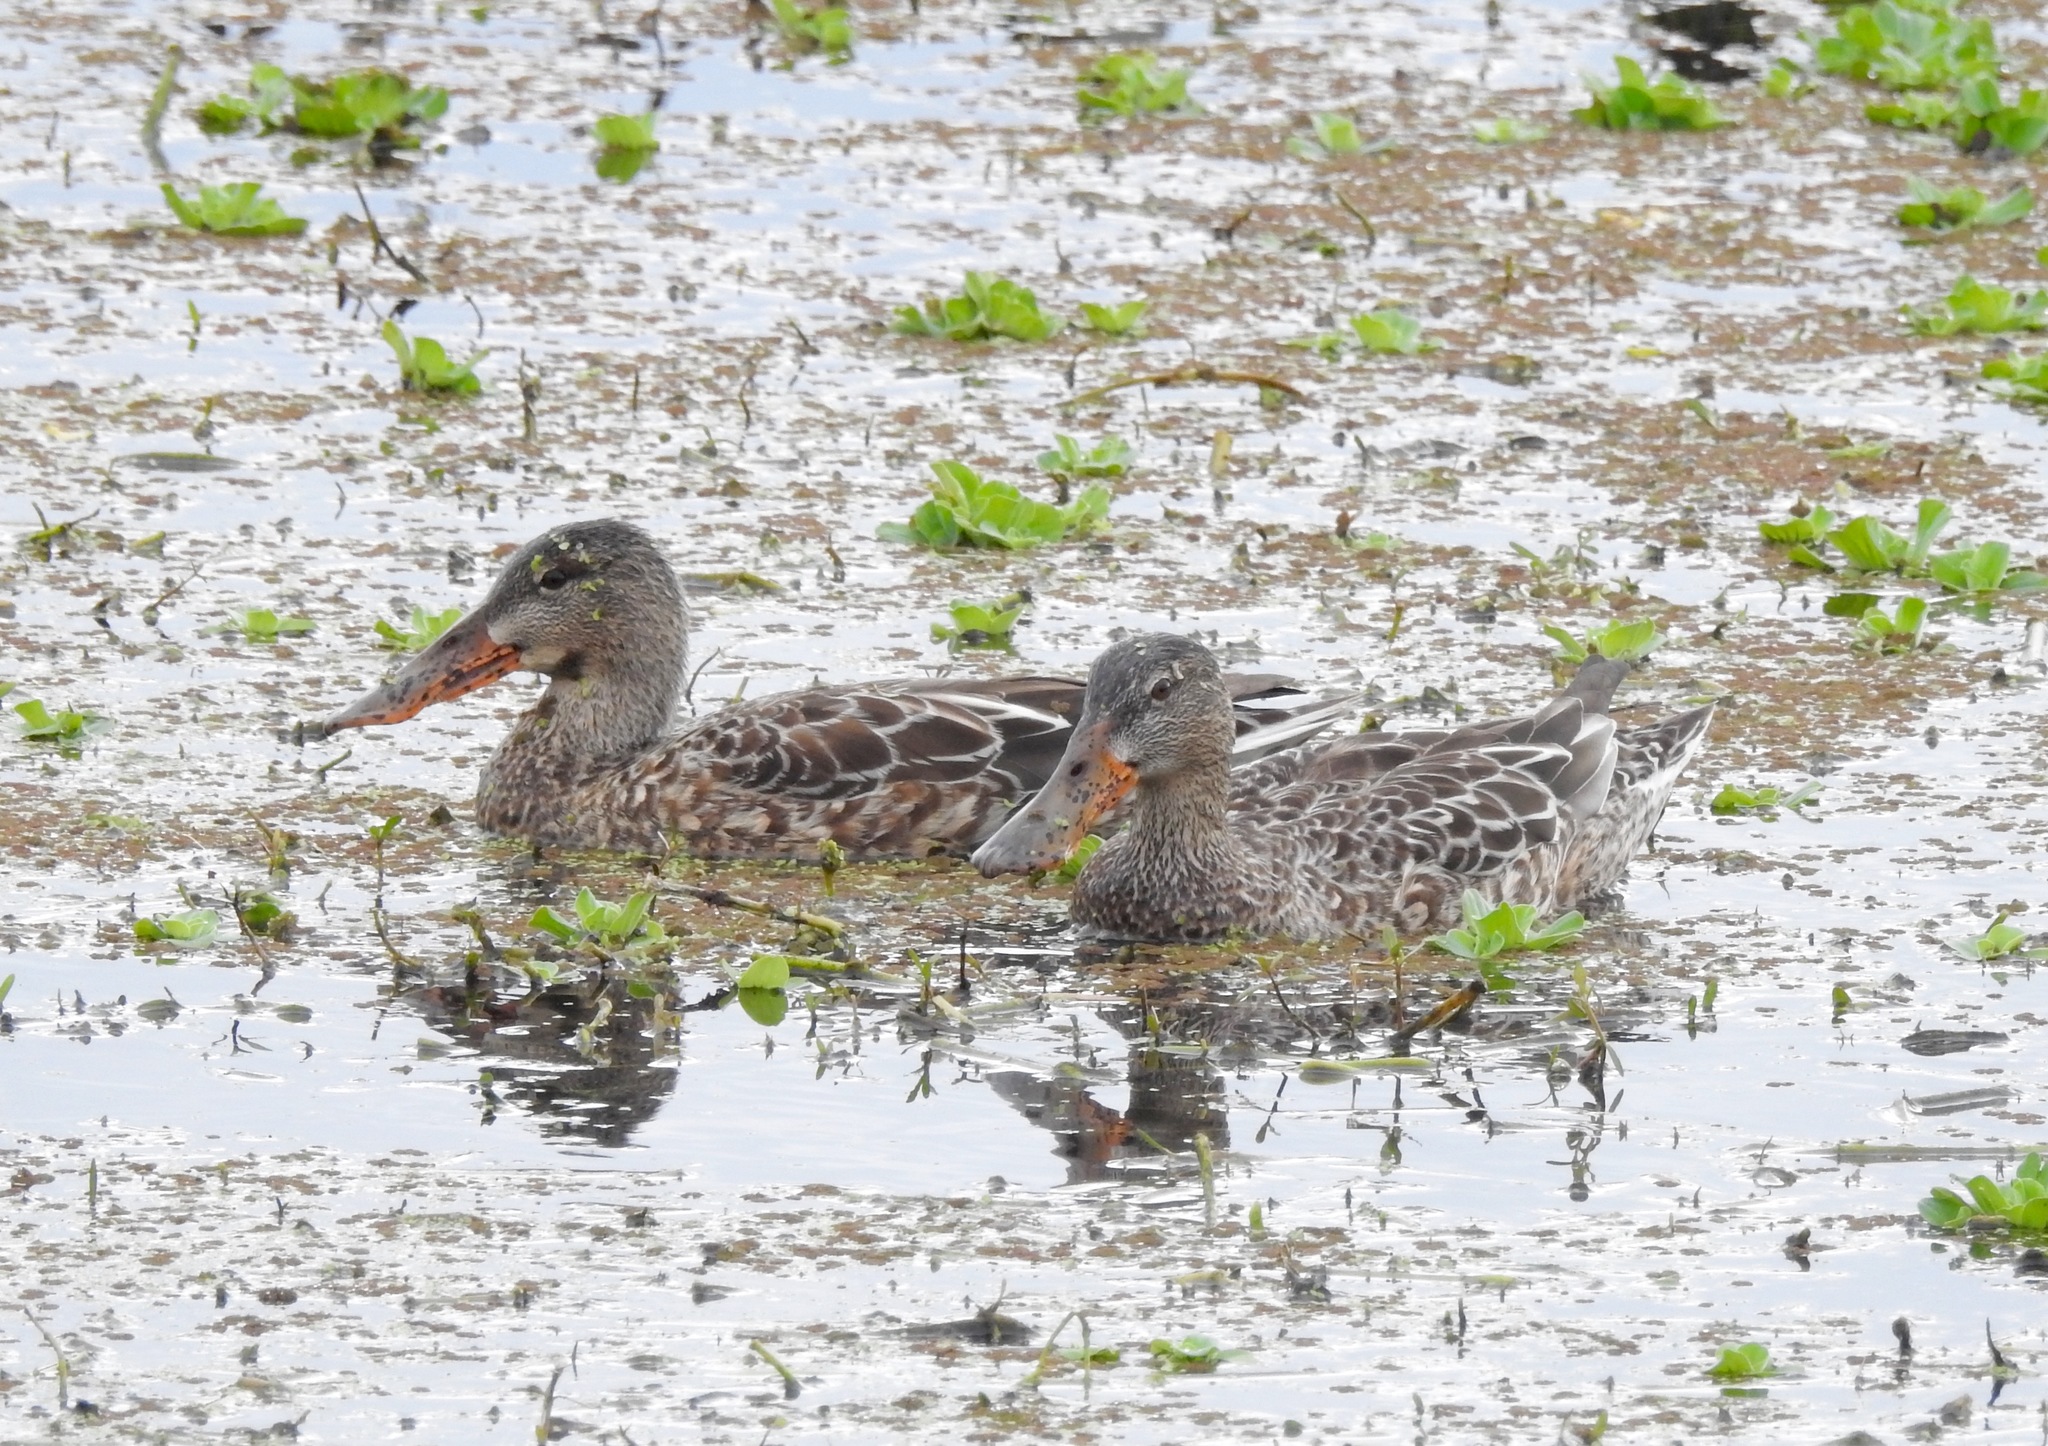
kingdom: Animalia
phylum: Chordata
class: Aves
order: Anseriformes
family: Anatidae
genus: Spatula
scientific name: Spatula clypeata
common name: Northern shoveler
